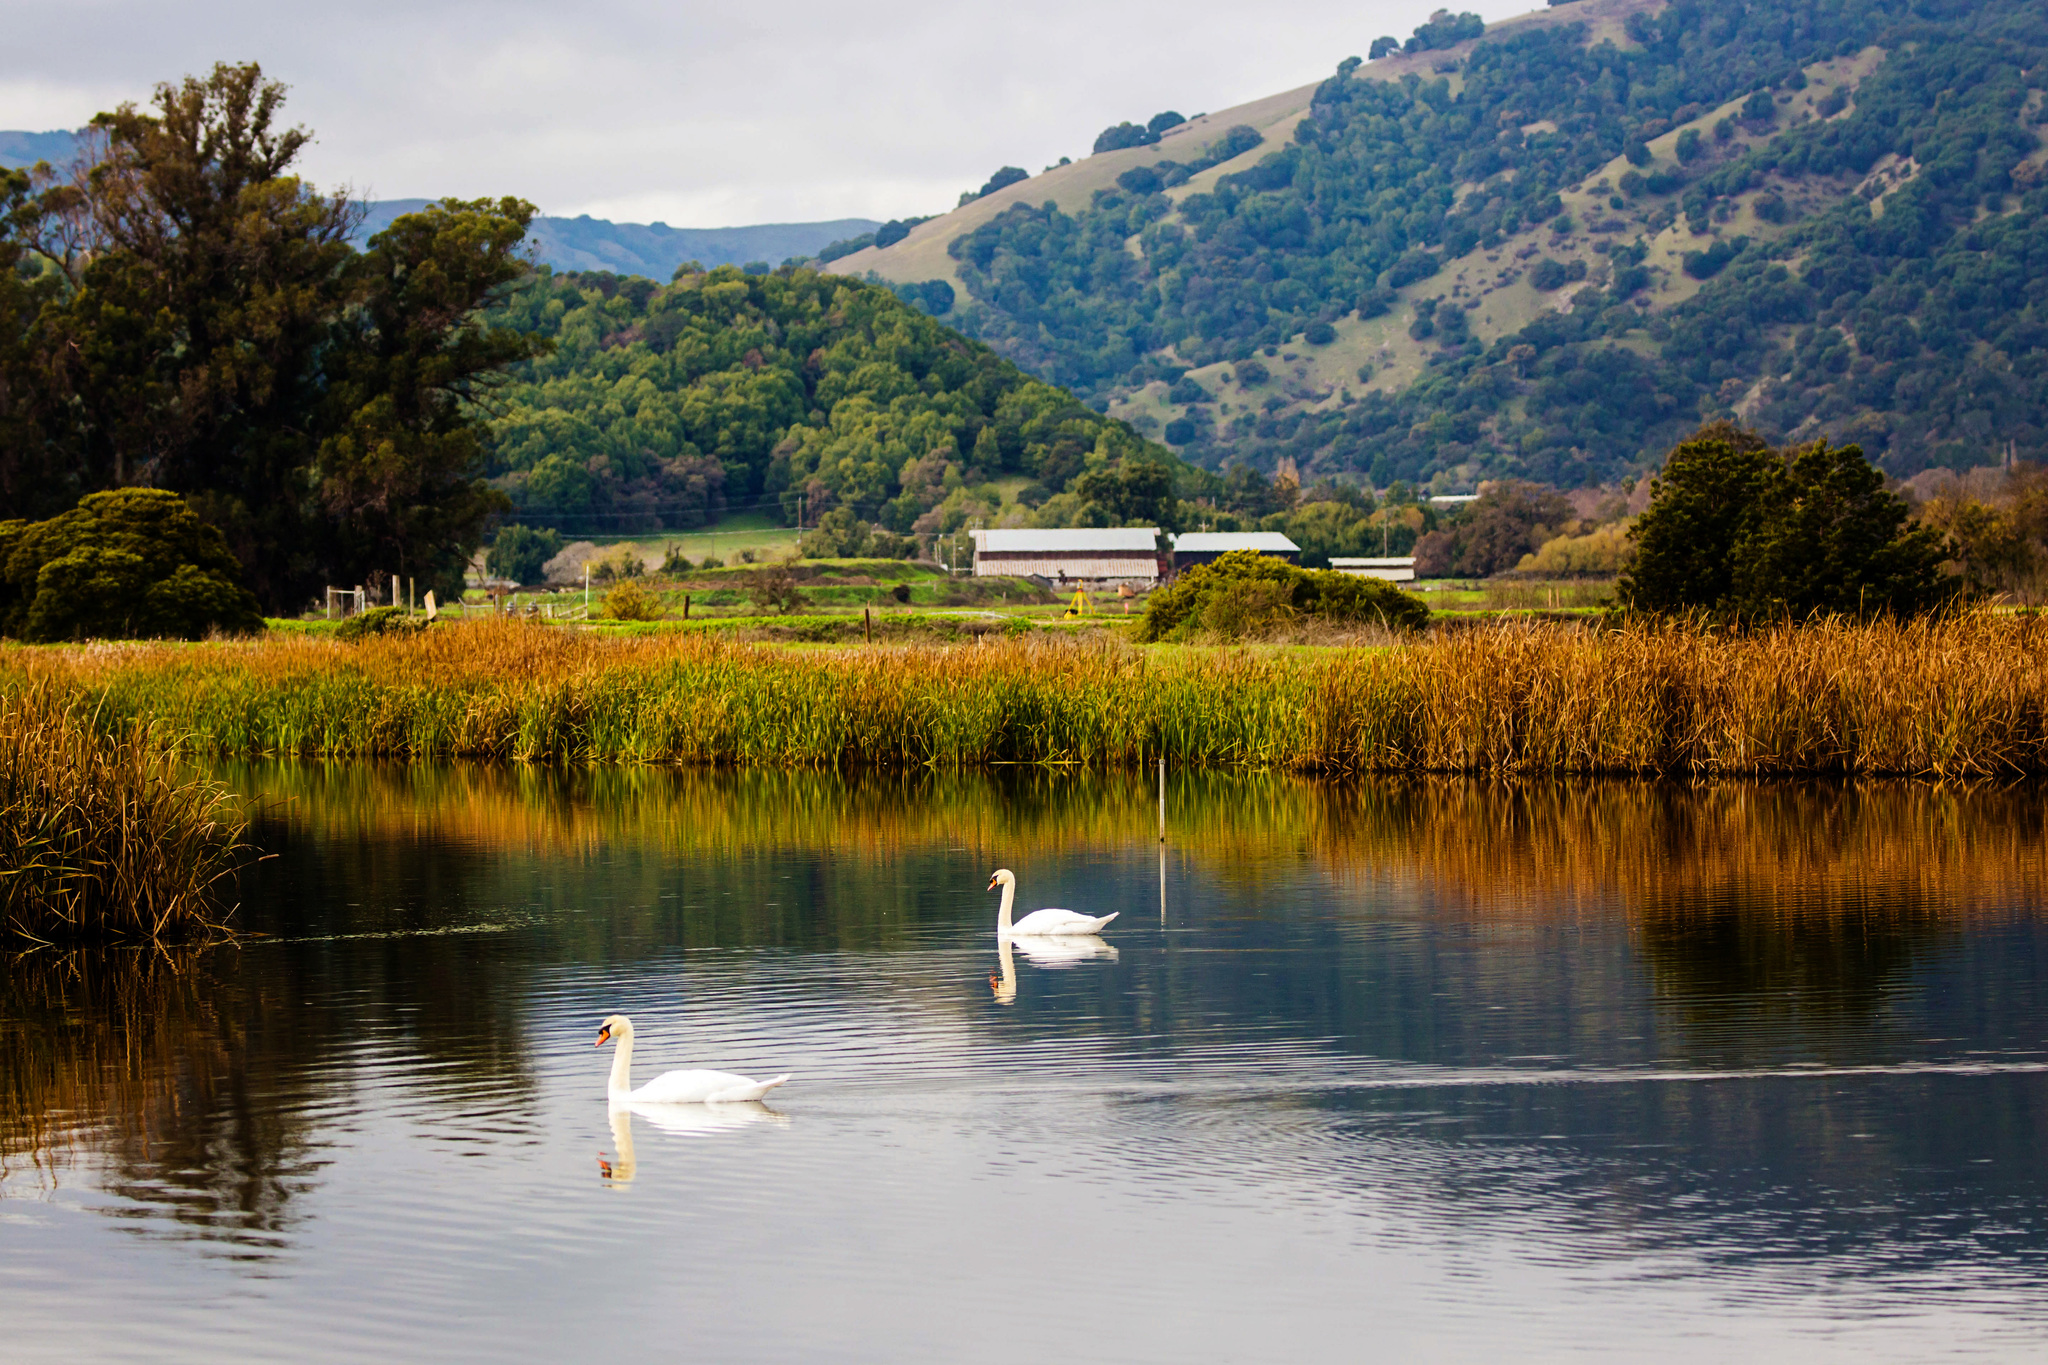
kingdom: Animalia
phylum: Chordata
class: Aves
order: Anseriformes
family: Anatidae
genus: Cygnus
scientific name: Cygnus olor
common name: Mute swan
